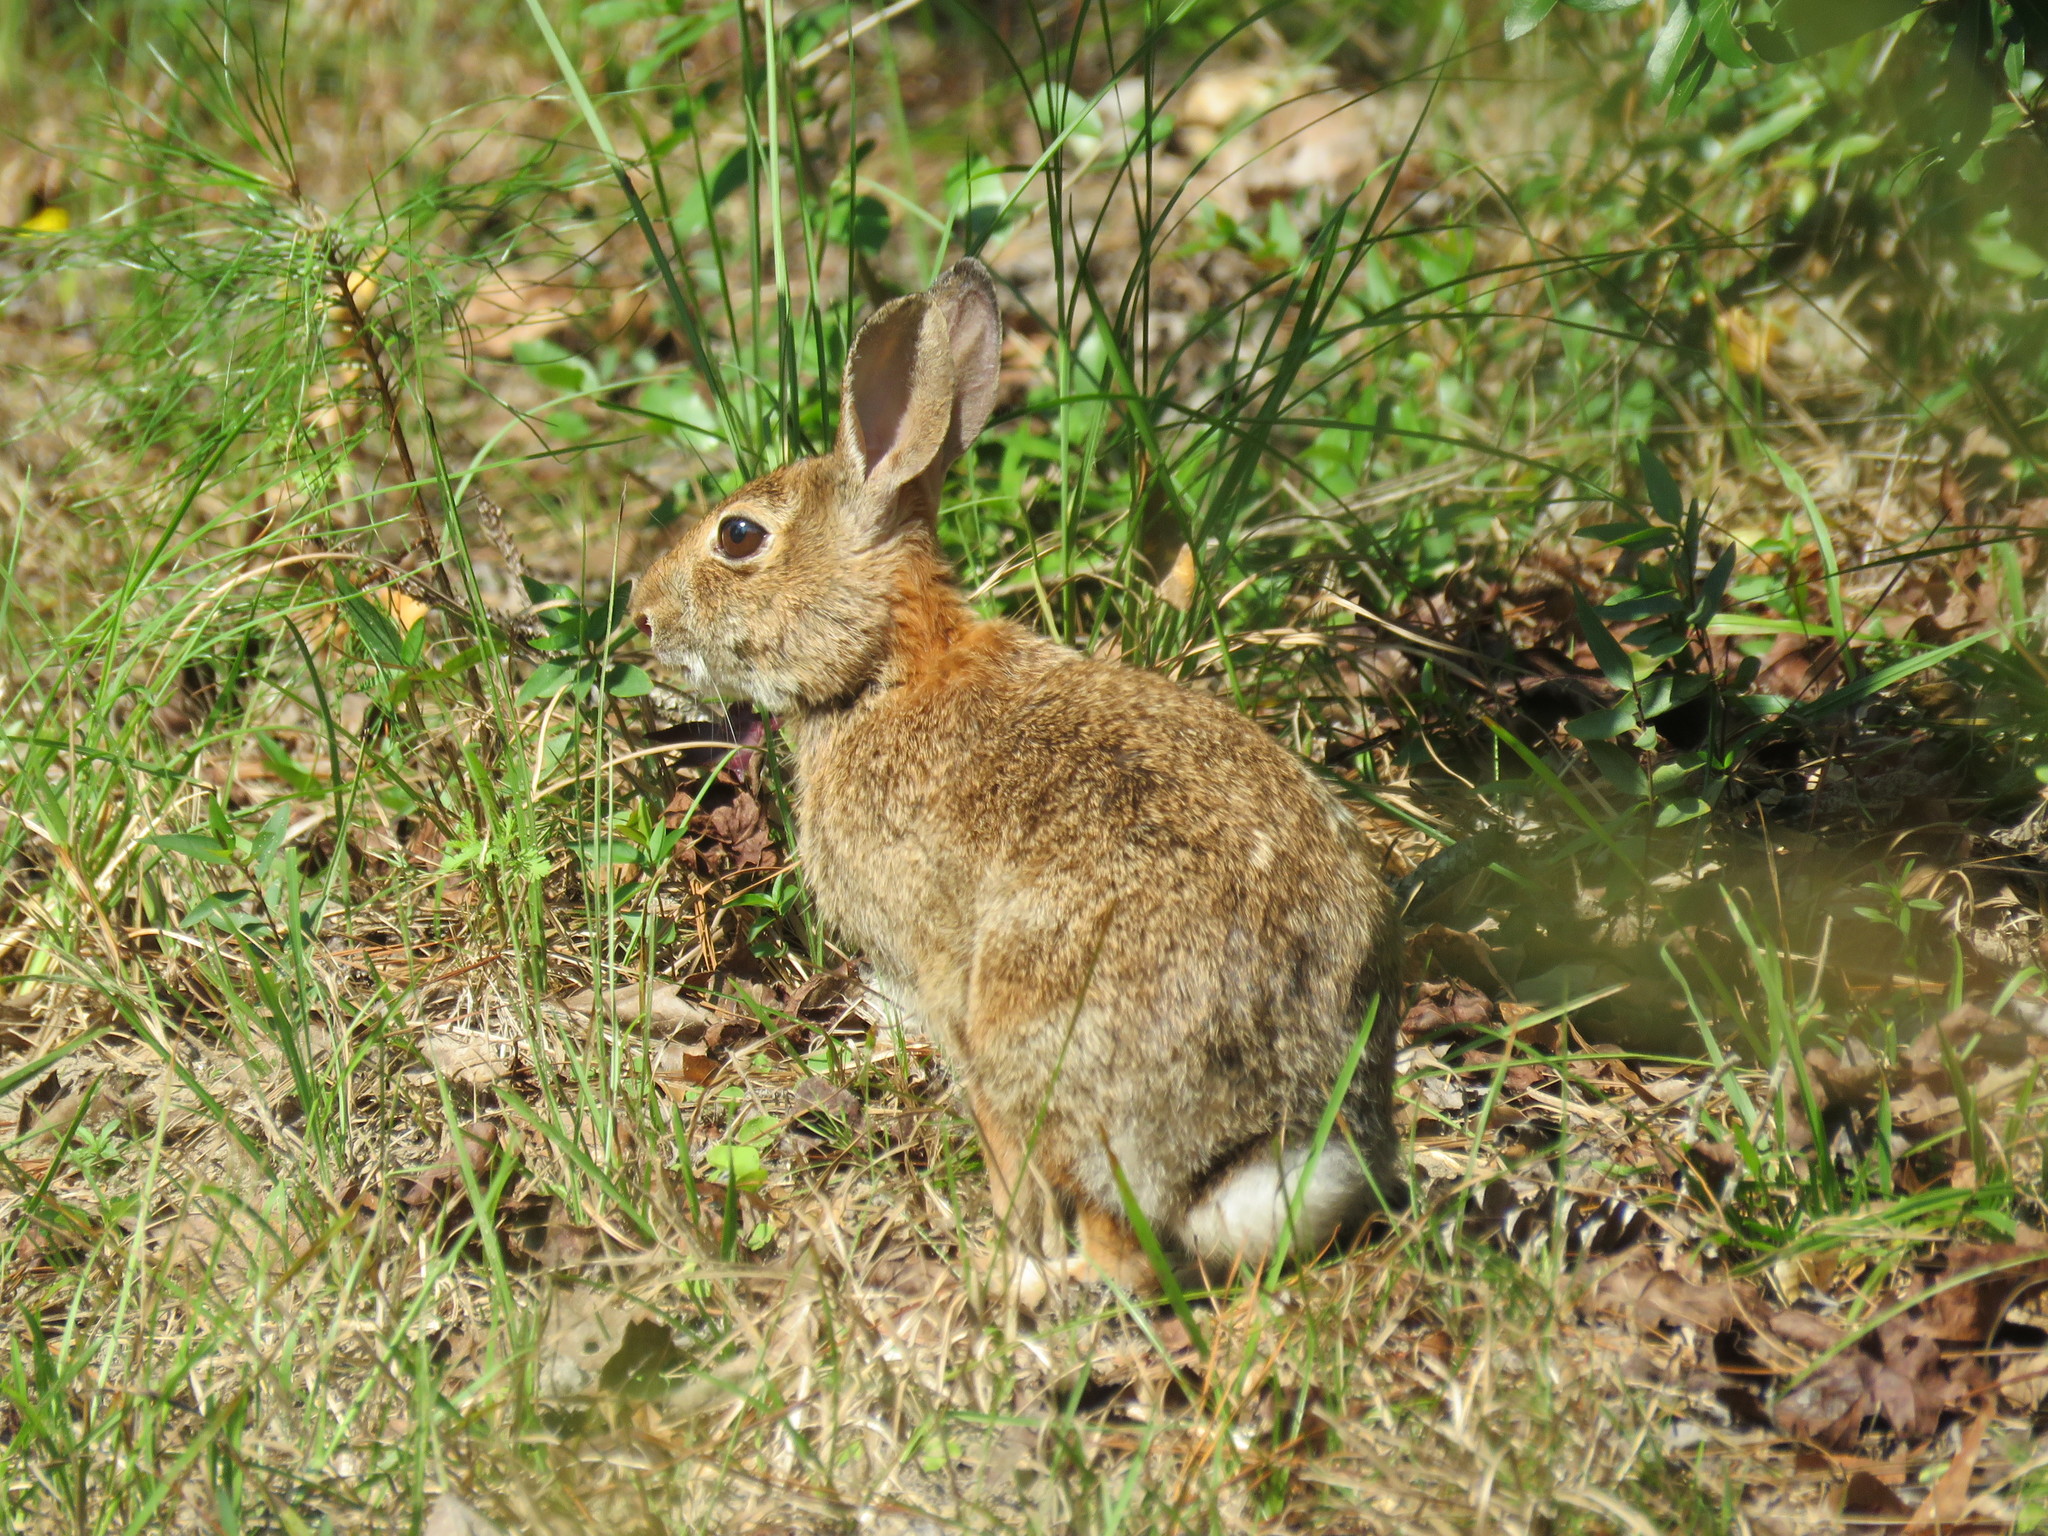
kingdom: Animalia
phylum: Chordata
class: Mammalia
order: Lagomorpha
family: Leporidae
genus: Sylvilagus
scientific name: Sylvilagus floridanus
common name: Eastern cottontail
